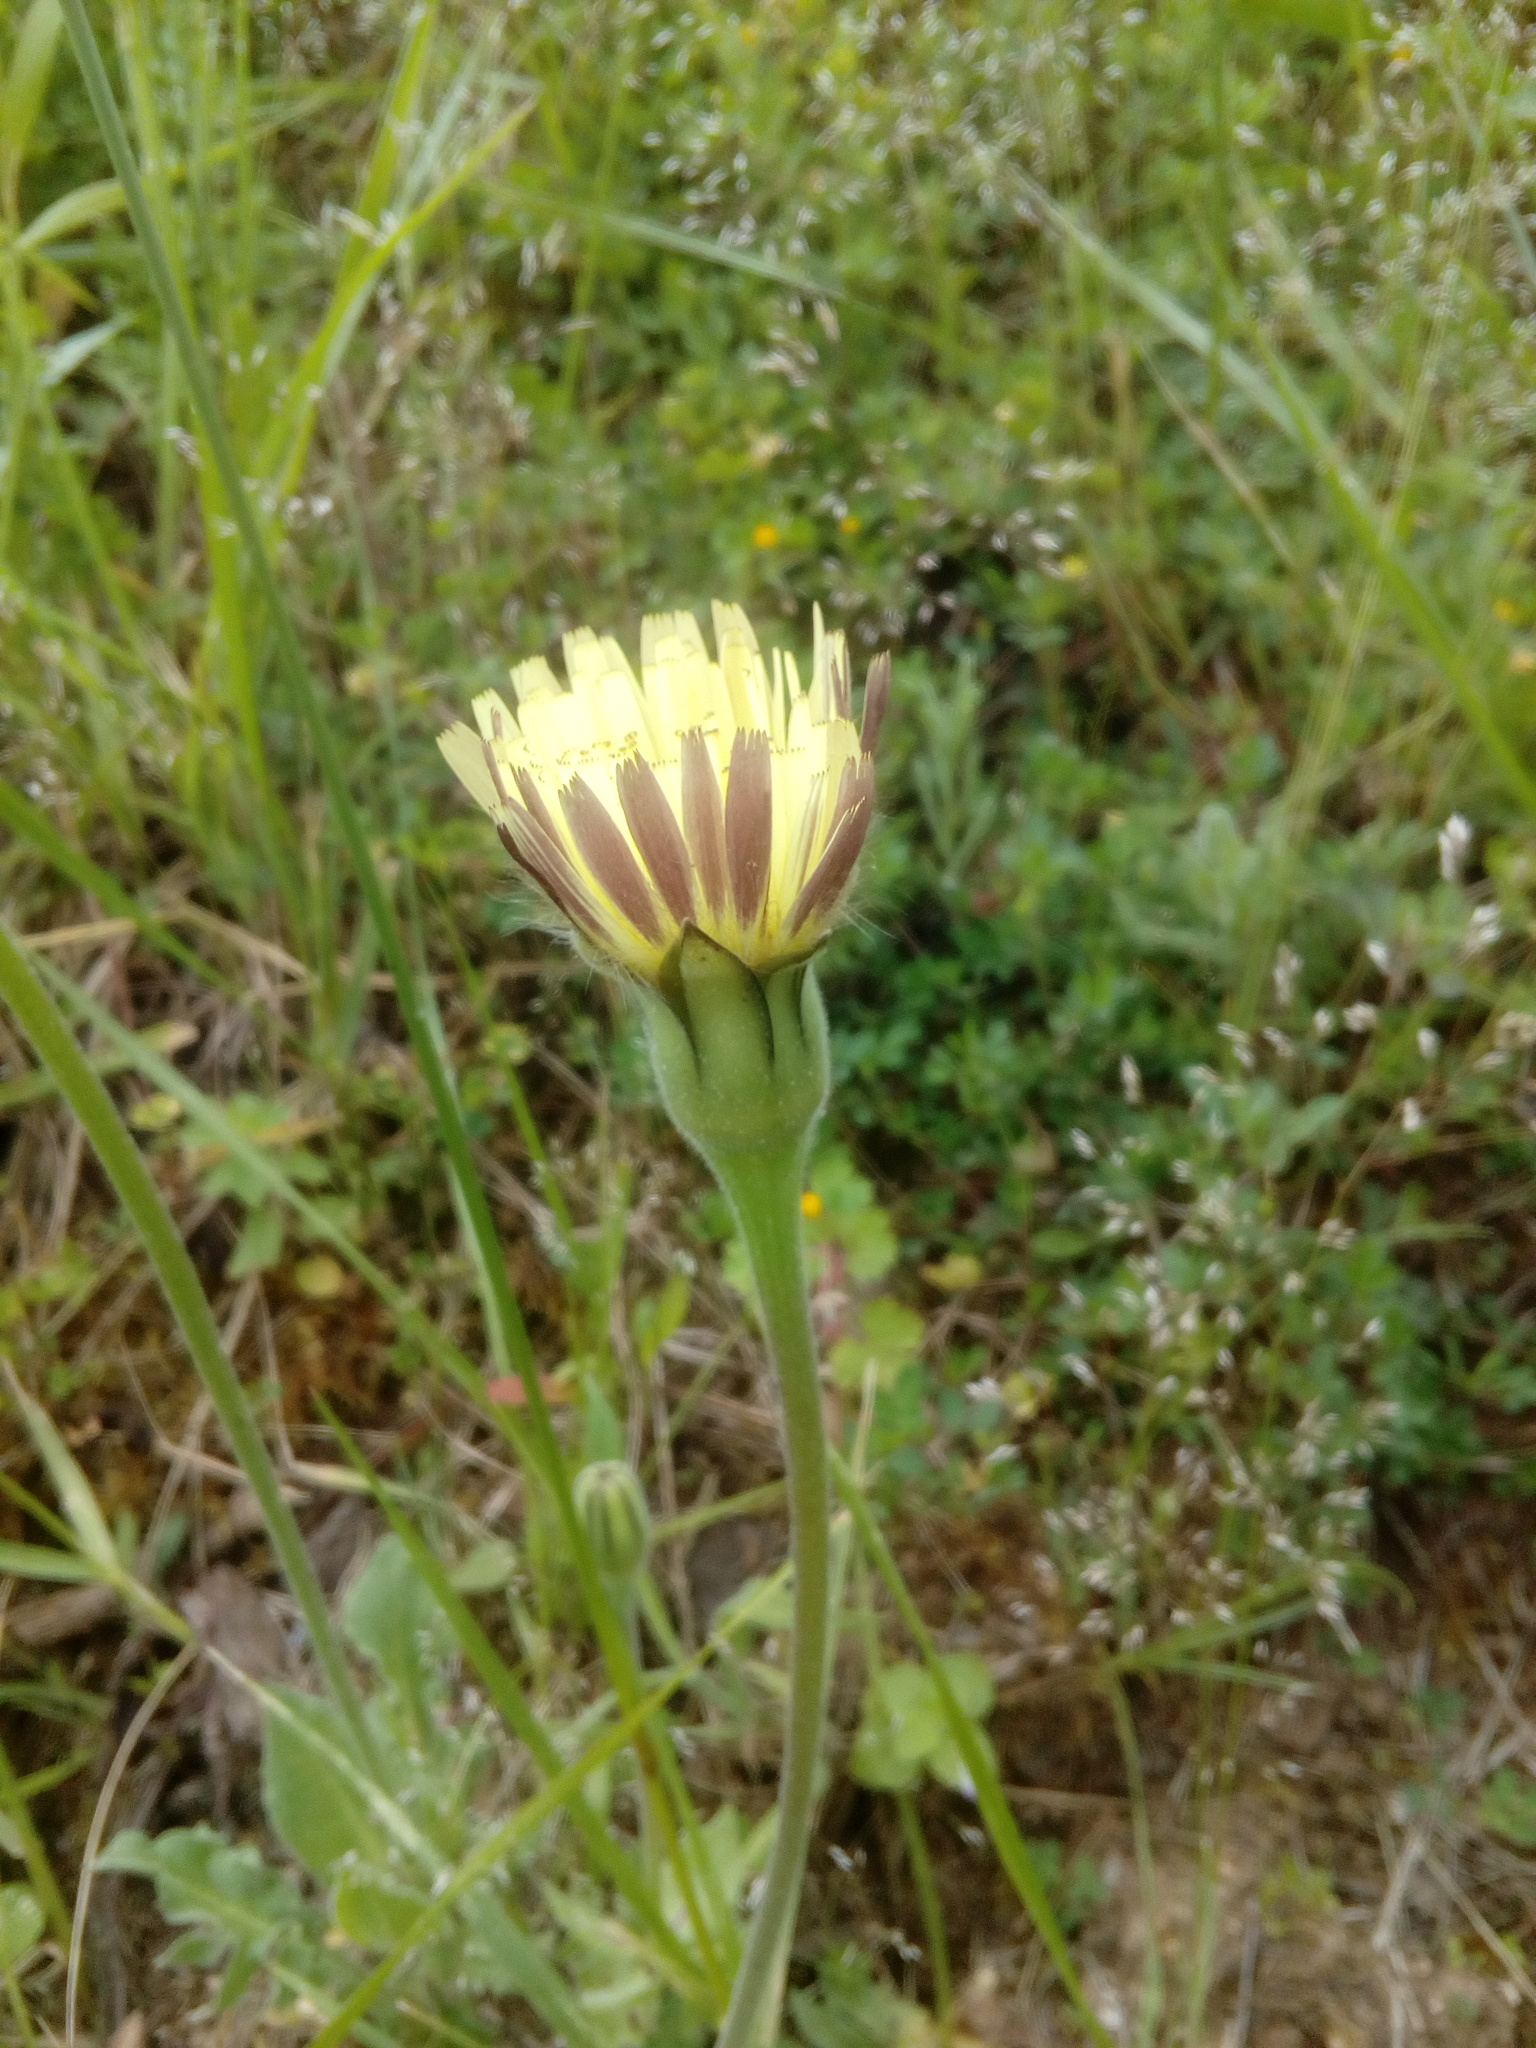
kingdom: Plantae
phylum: Tracheophyta
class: Magnoliopsida
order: Asterales
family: Asteraceae
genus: Urospermum
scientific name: Urospermum dalechampii
